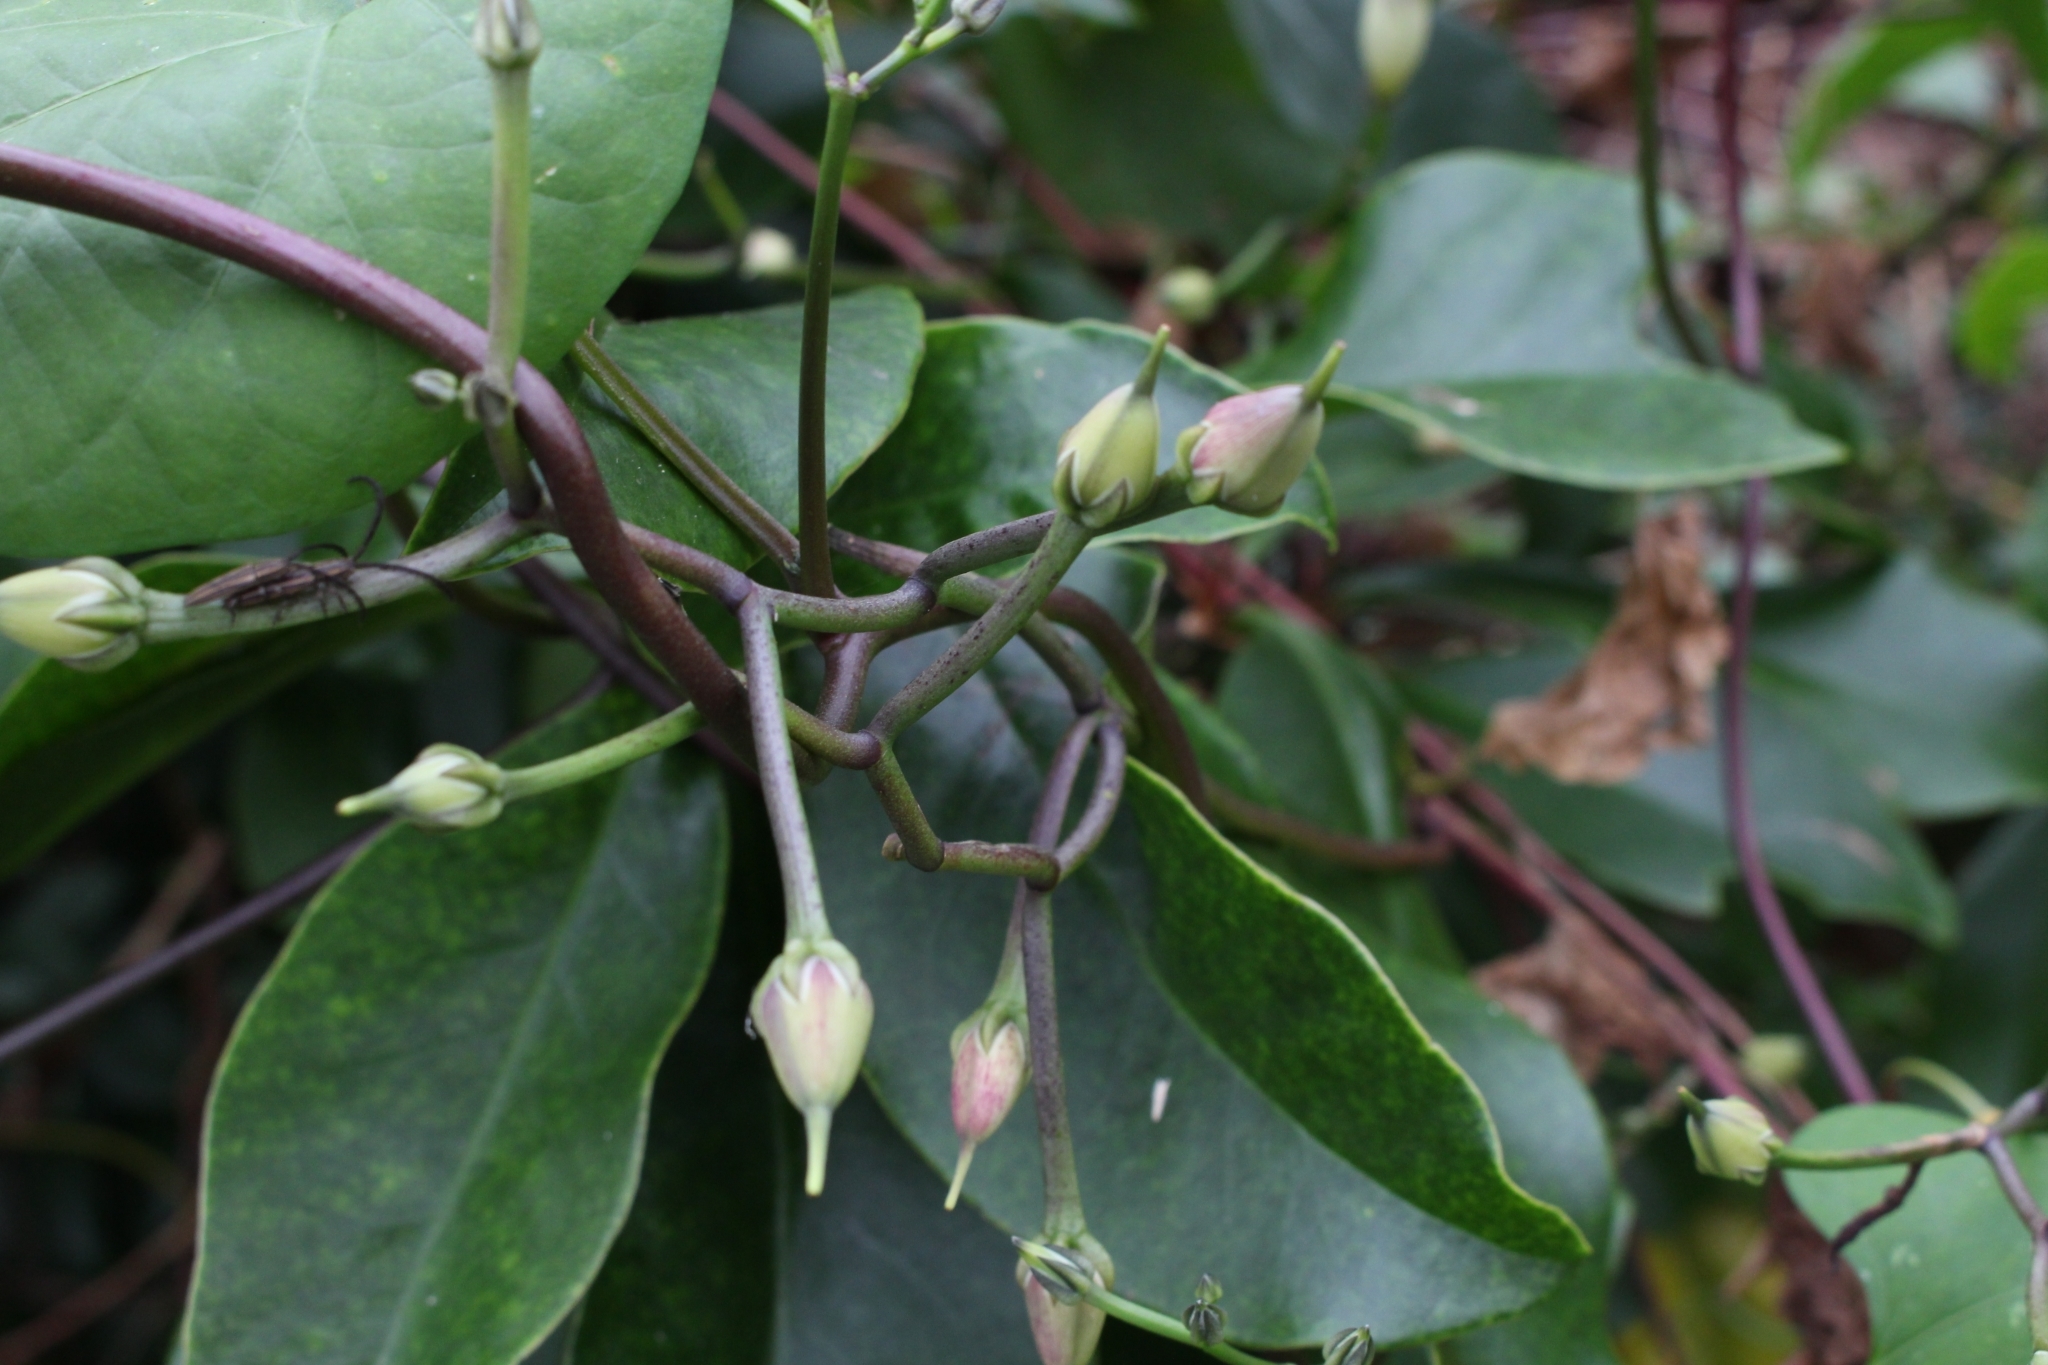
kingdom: Plantae
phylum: Tracheophyta
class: Magnoliopsida
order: Solanales
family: Convolvulaceae
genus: Ipomoea
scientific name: Ipomoea tricolor
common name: Morning-glory
